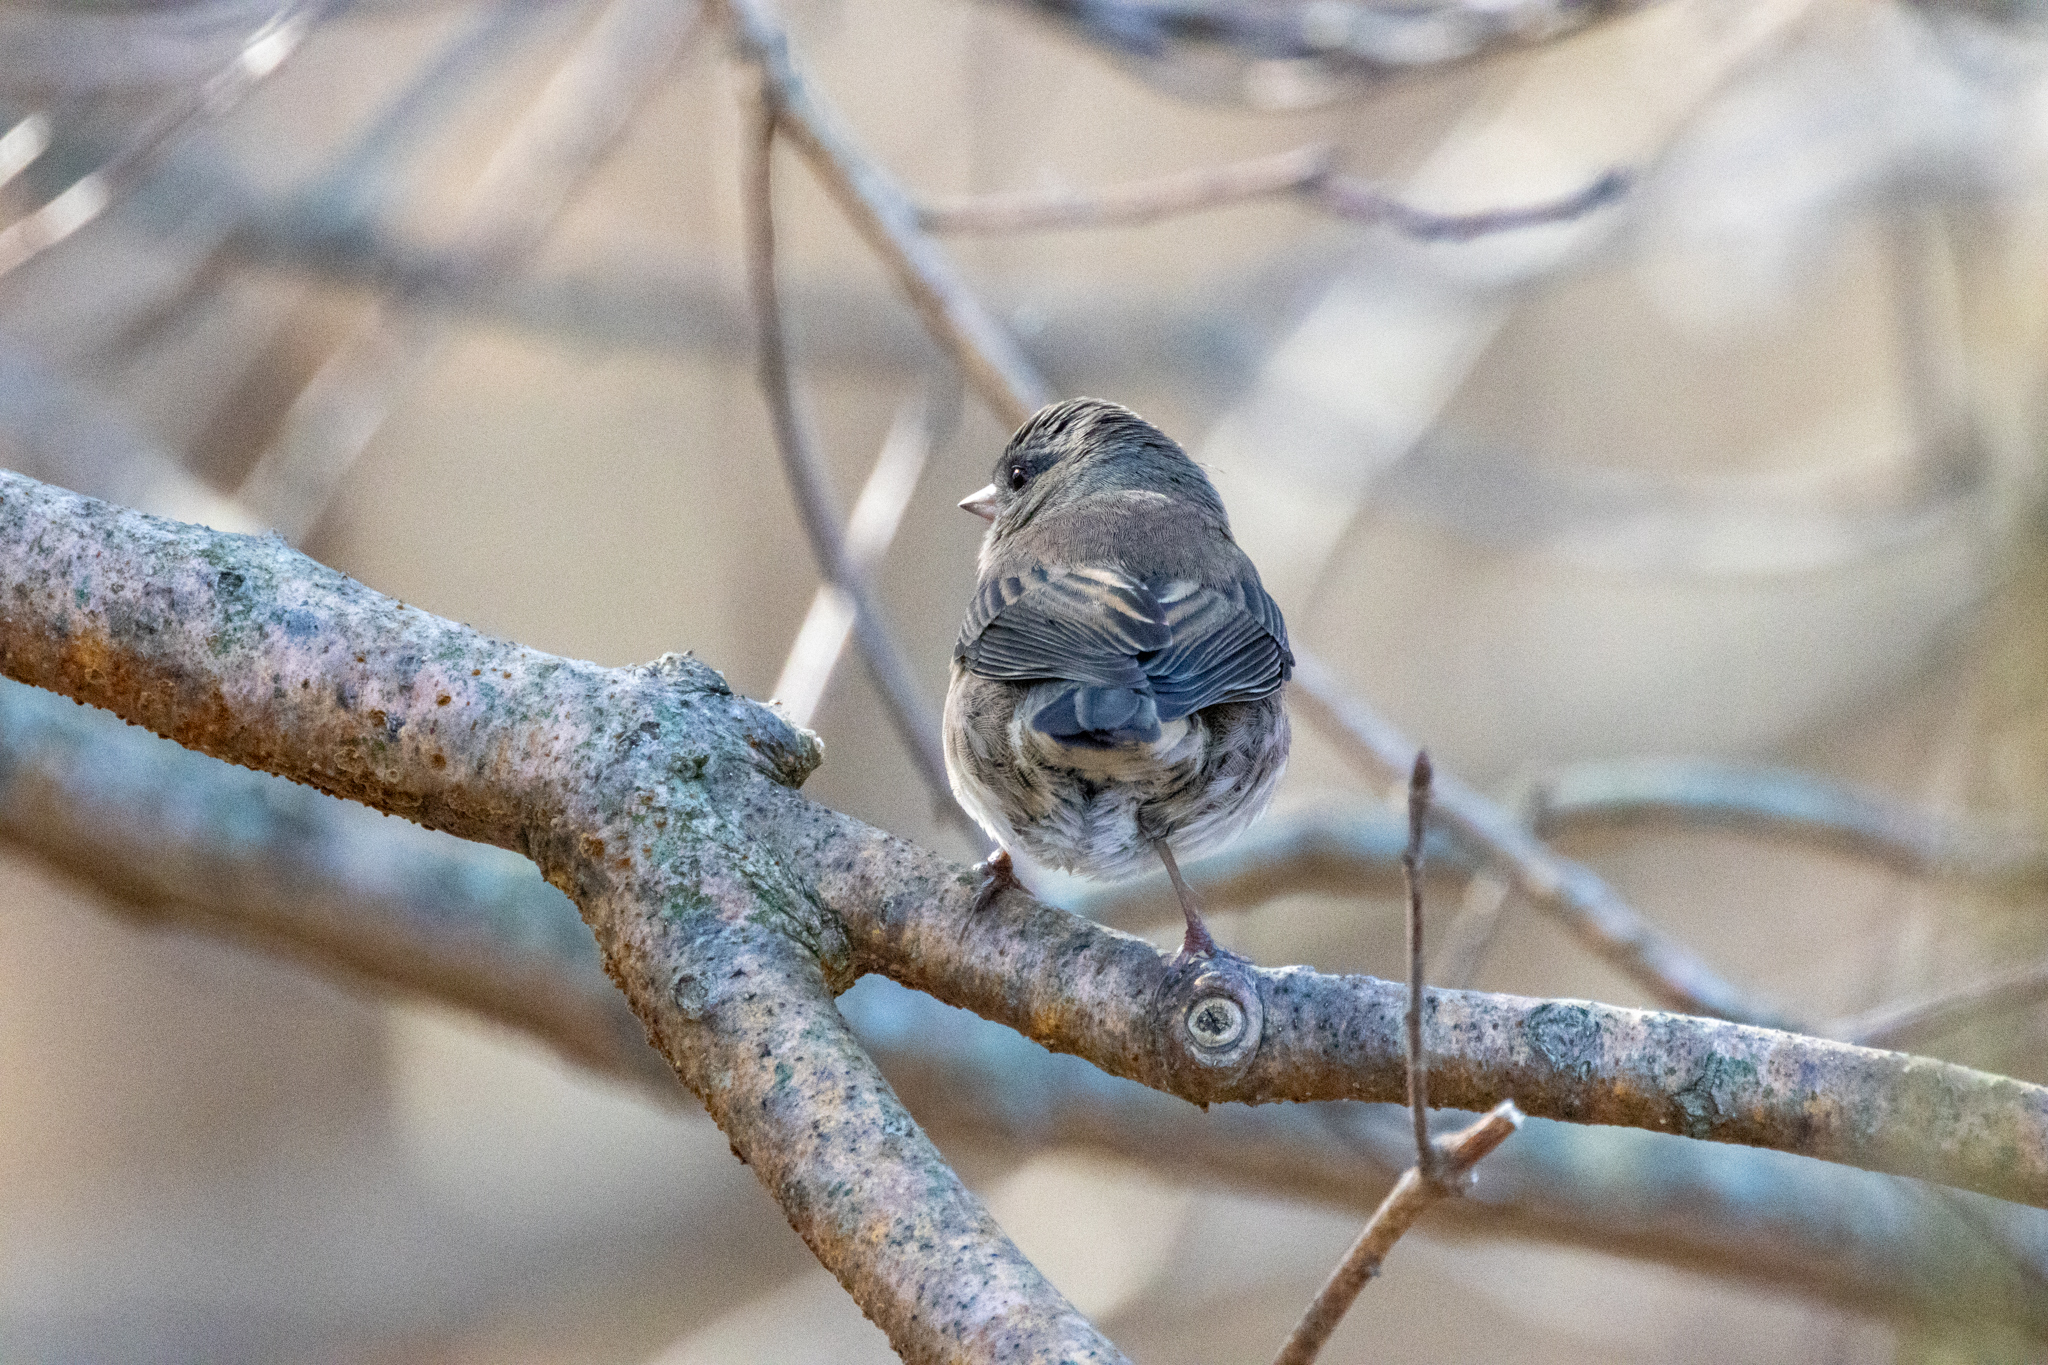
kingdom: Animalia
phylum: Chordata
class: Aves
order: Passeriformes
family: Passerellidae
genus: Junco
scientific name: Junco hyemalis
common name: Dark-eyed junco
